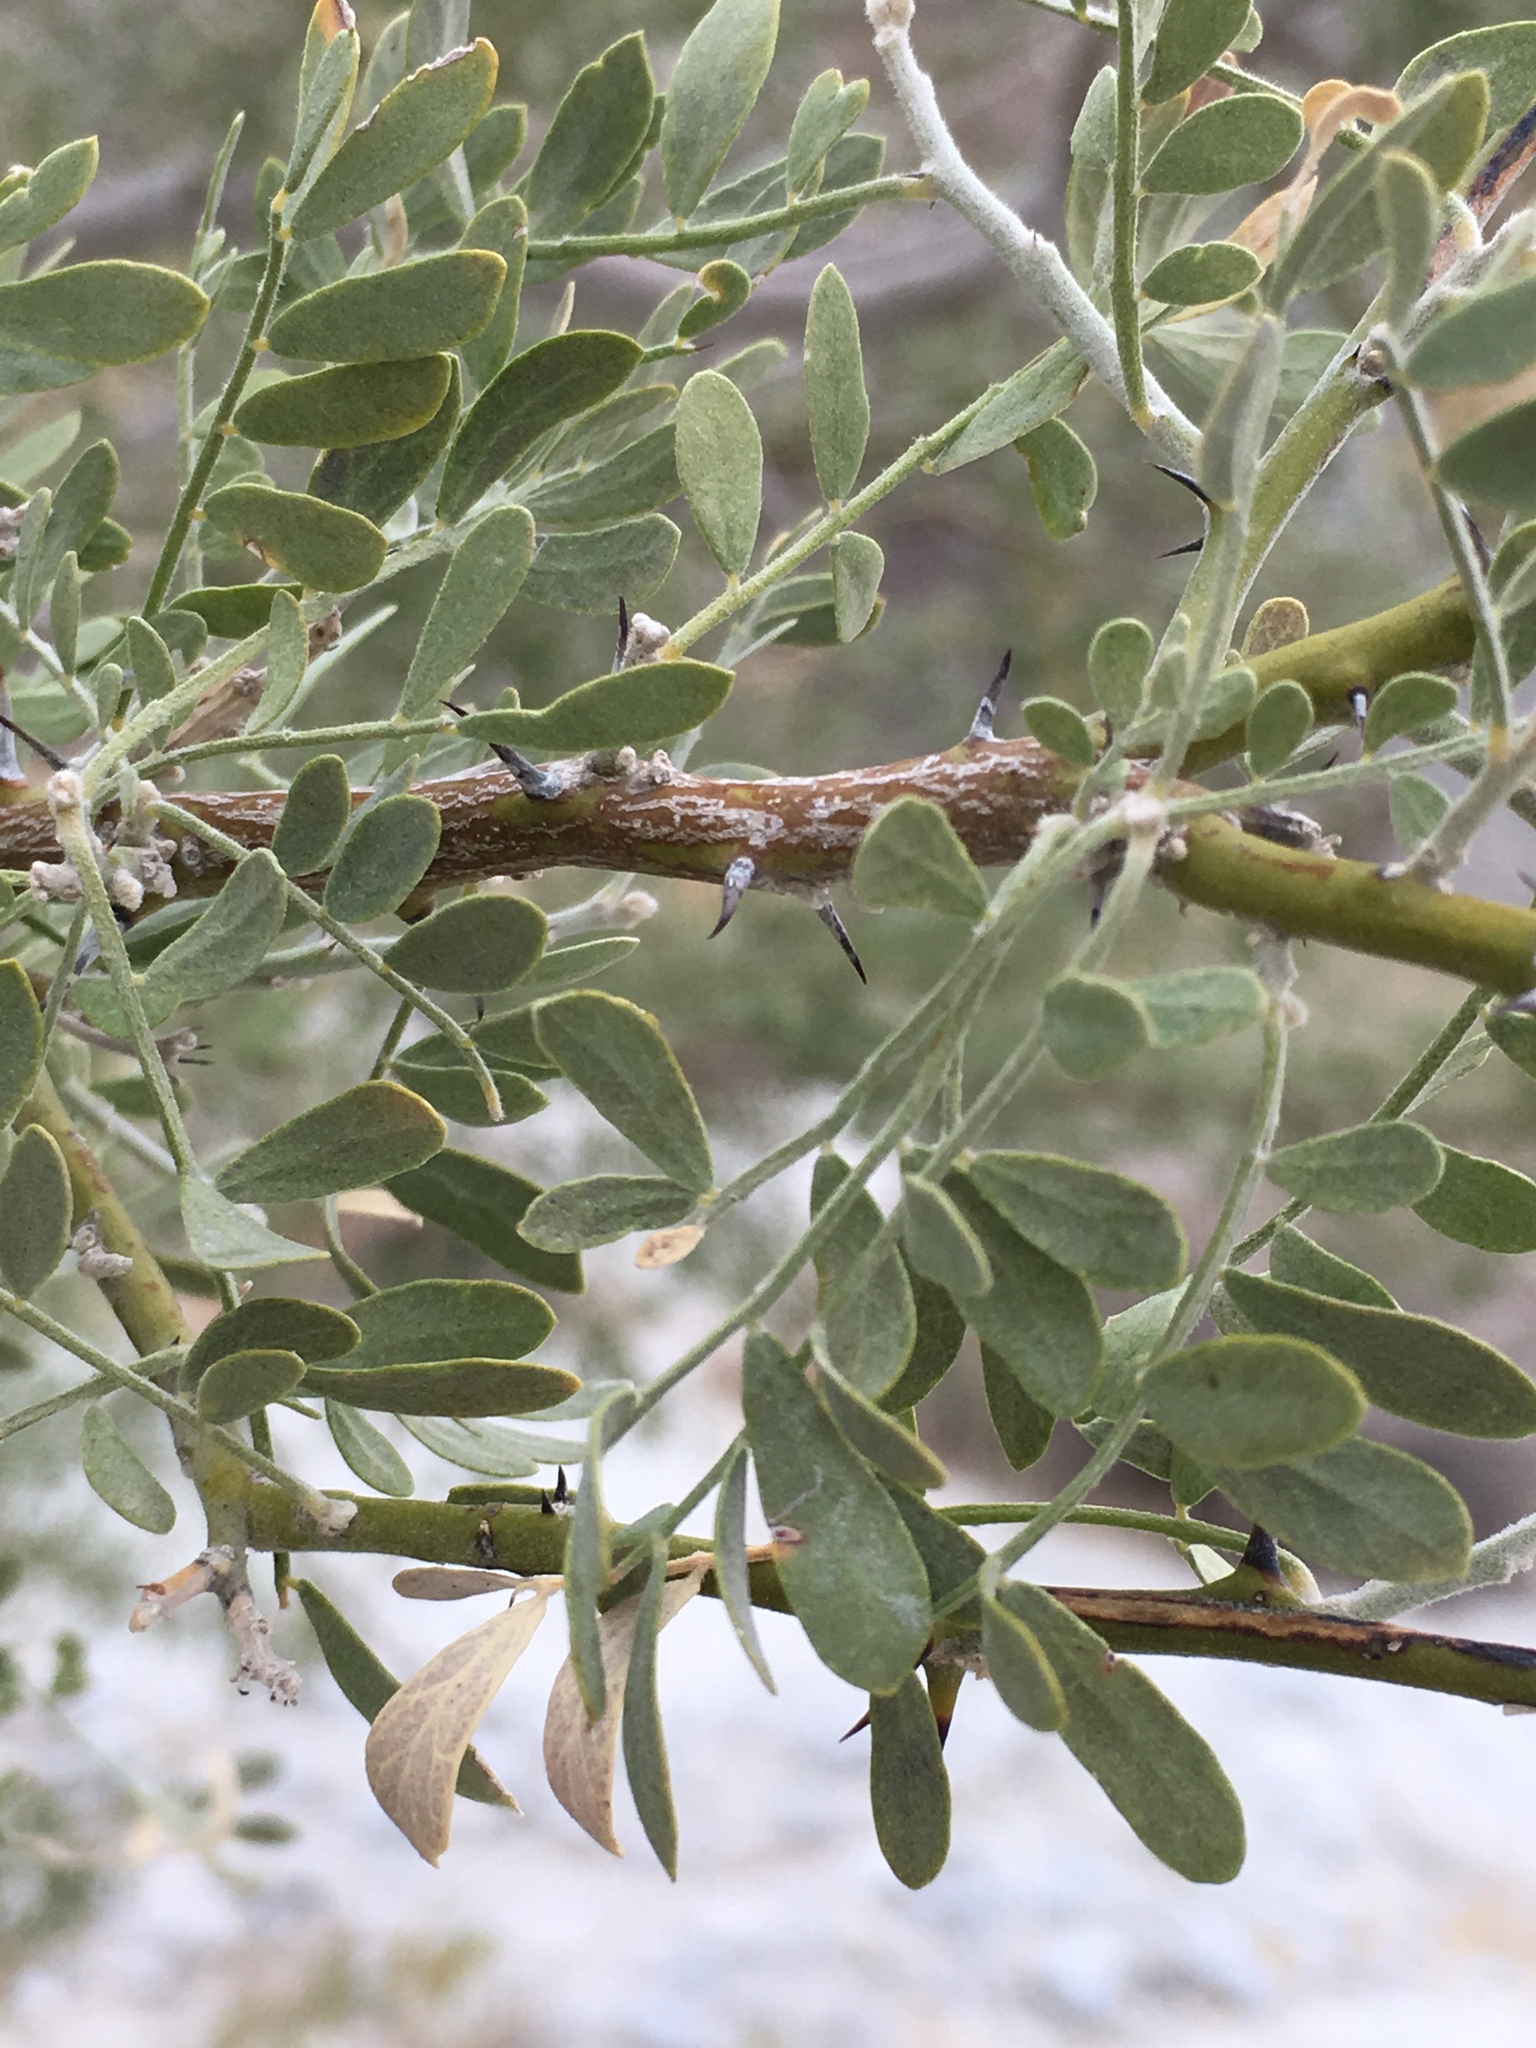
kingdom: Plantae
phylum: Tracheophyta
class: Magnoliopsida
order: Fabales
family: Fabaceae
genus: Olneya
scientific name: Olneya tesota
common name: Desert ironwood
